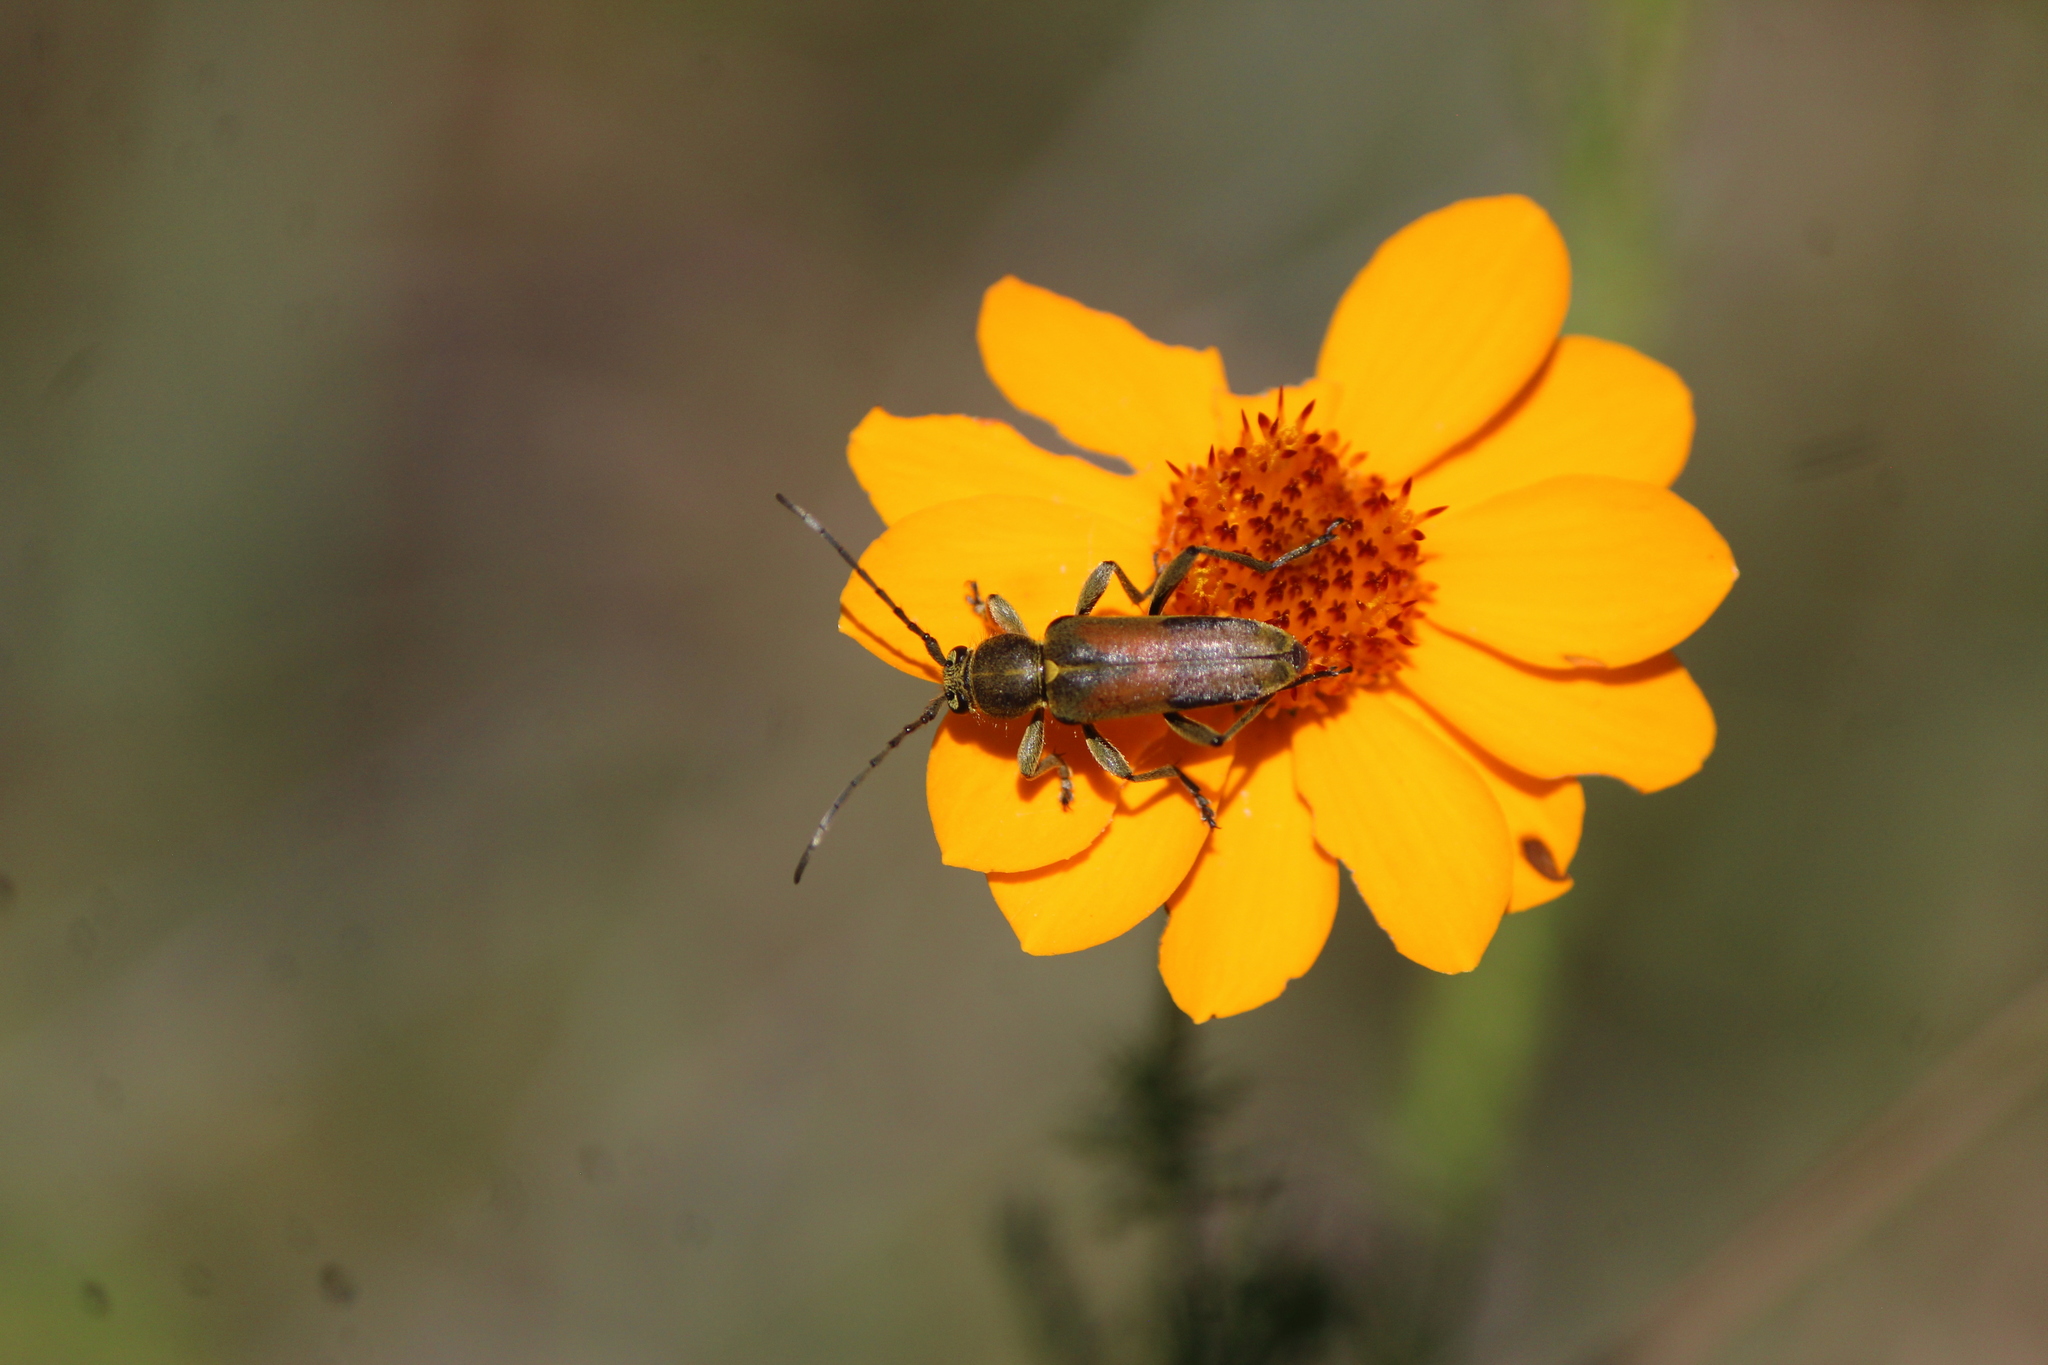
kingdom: Animalia
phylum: Arthropoda
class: Insecta
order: Coleoptera
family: Cerambycidae
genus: Ochraethes
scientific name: Ochraethes palmeri
